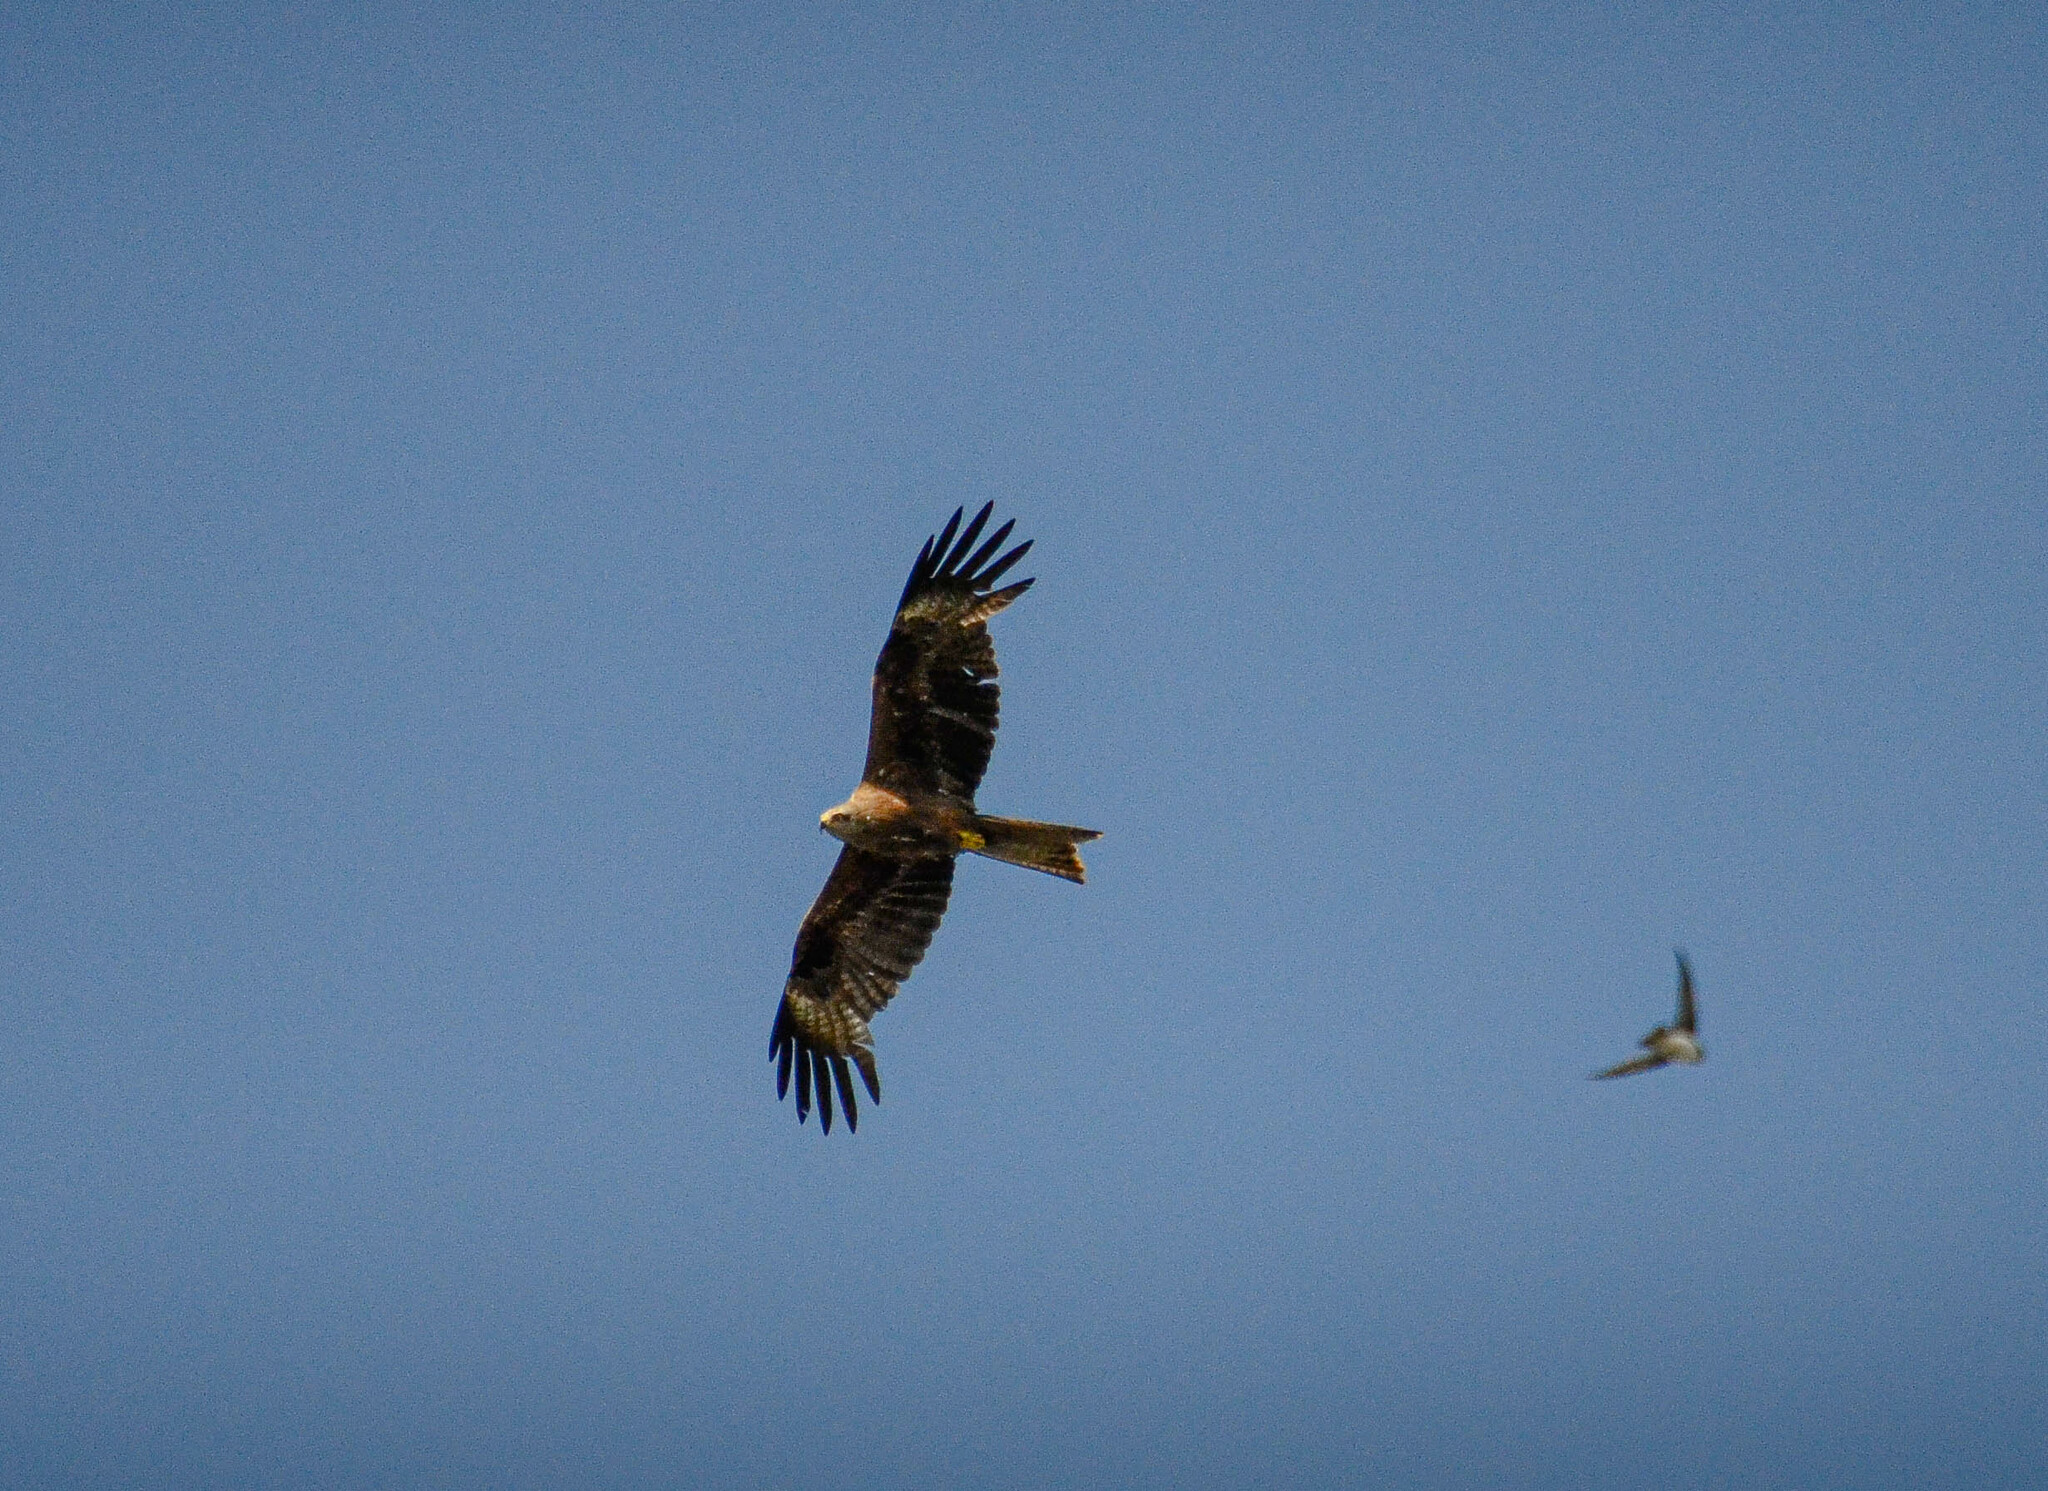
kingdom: Animalia
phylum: Chordata
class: Aves
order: Accipitriformes
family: Accipitridae
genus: Milvus
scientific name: Milvus migrans
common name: Black kite
